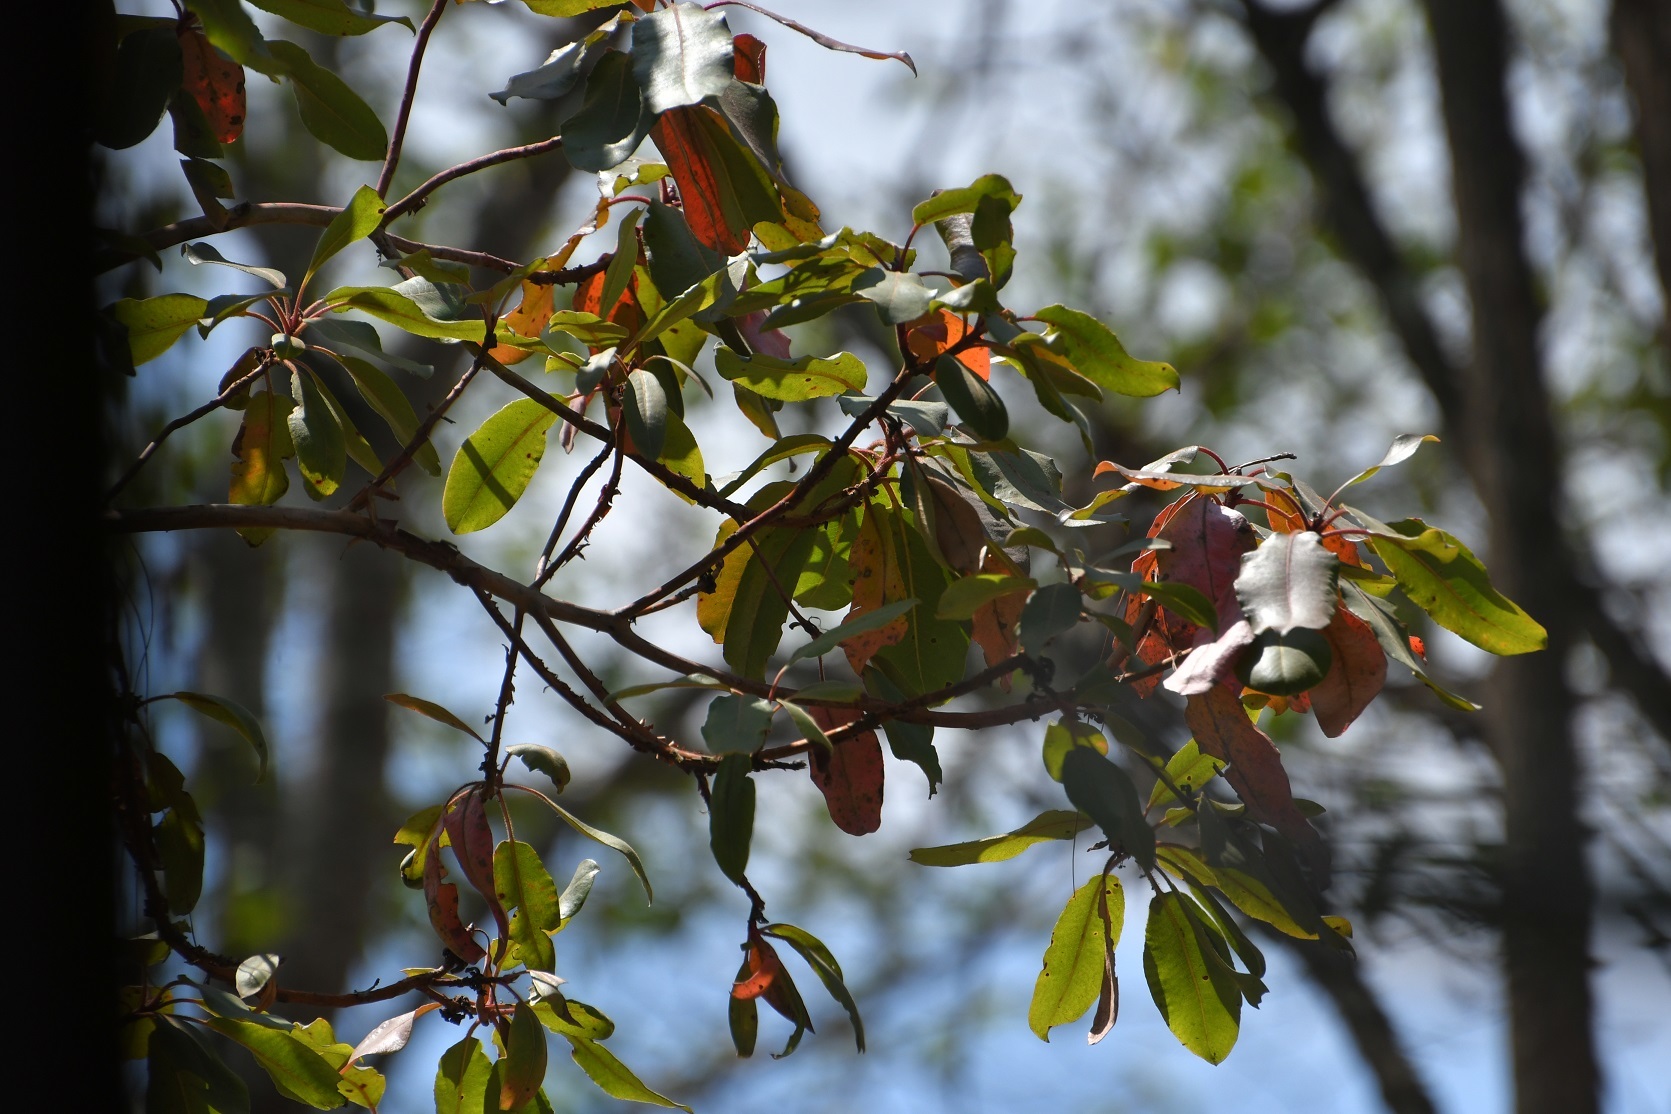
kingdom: Plantae
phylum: Tracheophyta
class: Magnoliopsida
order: Ericales
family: Ericaceae
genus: Arbutus
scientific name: Arbutus xalapensis
